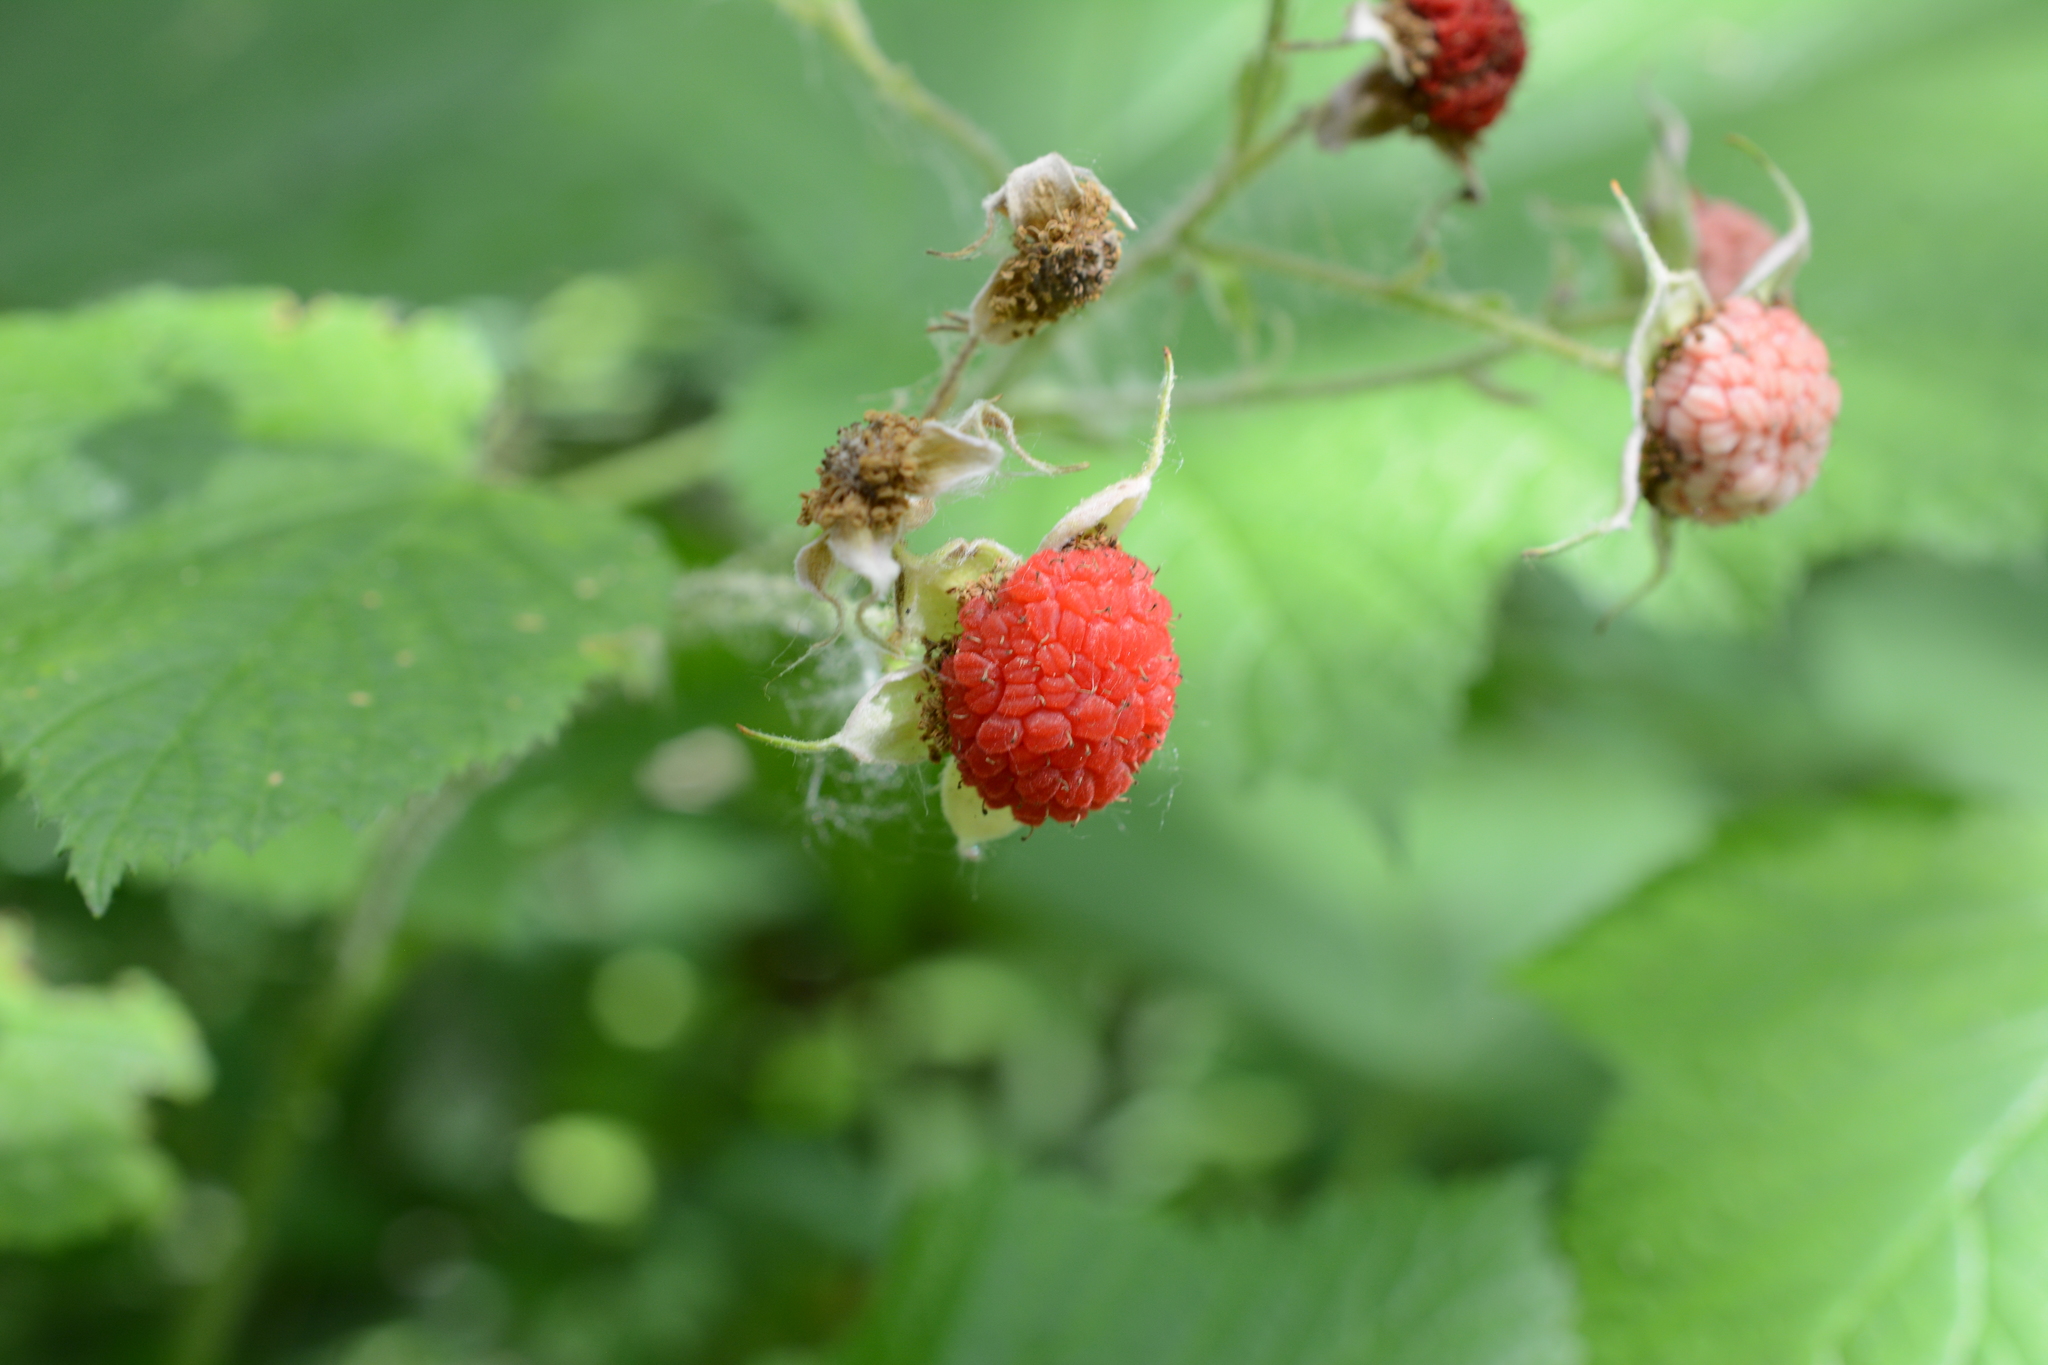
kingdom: Plantae
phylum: Tracheophyta
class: Magnoliopsida
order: Rosales
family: Rosaceae
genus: Rubus
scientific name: Rubus parviflorus
